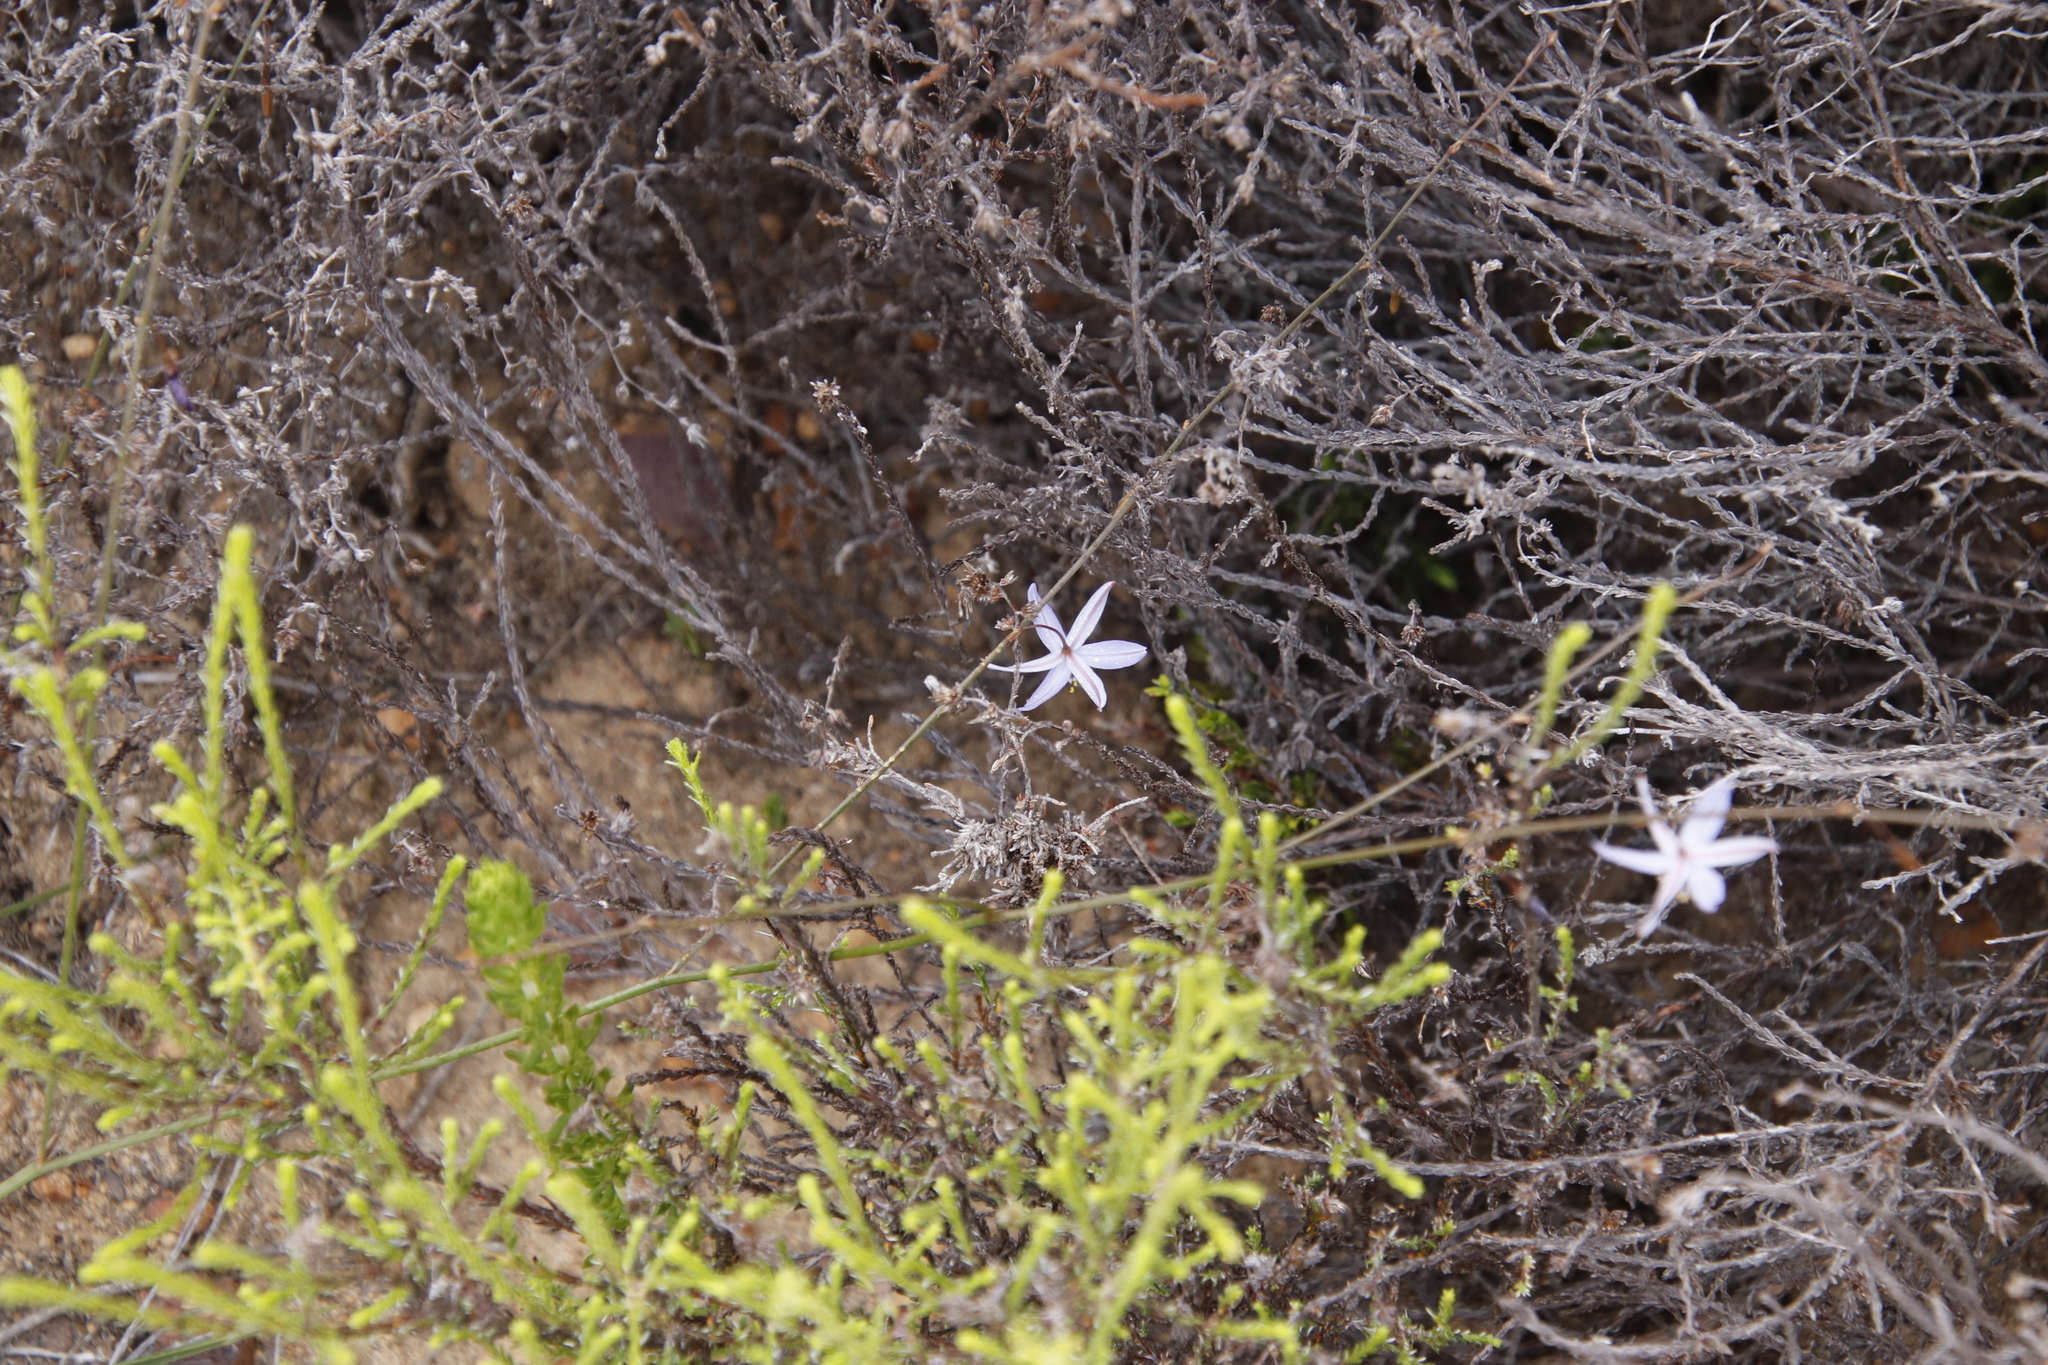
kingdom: Plantae
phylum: Tracheophyta
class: Liliopsida
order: Asparagales
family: Asphodelaceae
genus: Caesia
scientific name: Caesia contorta
